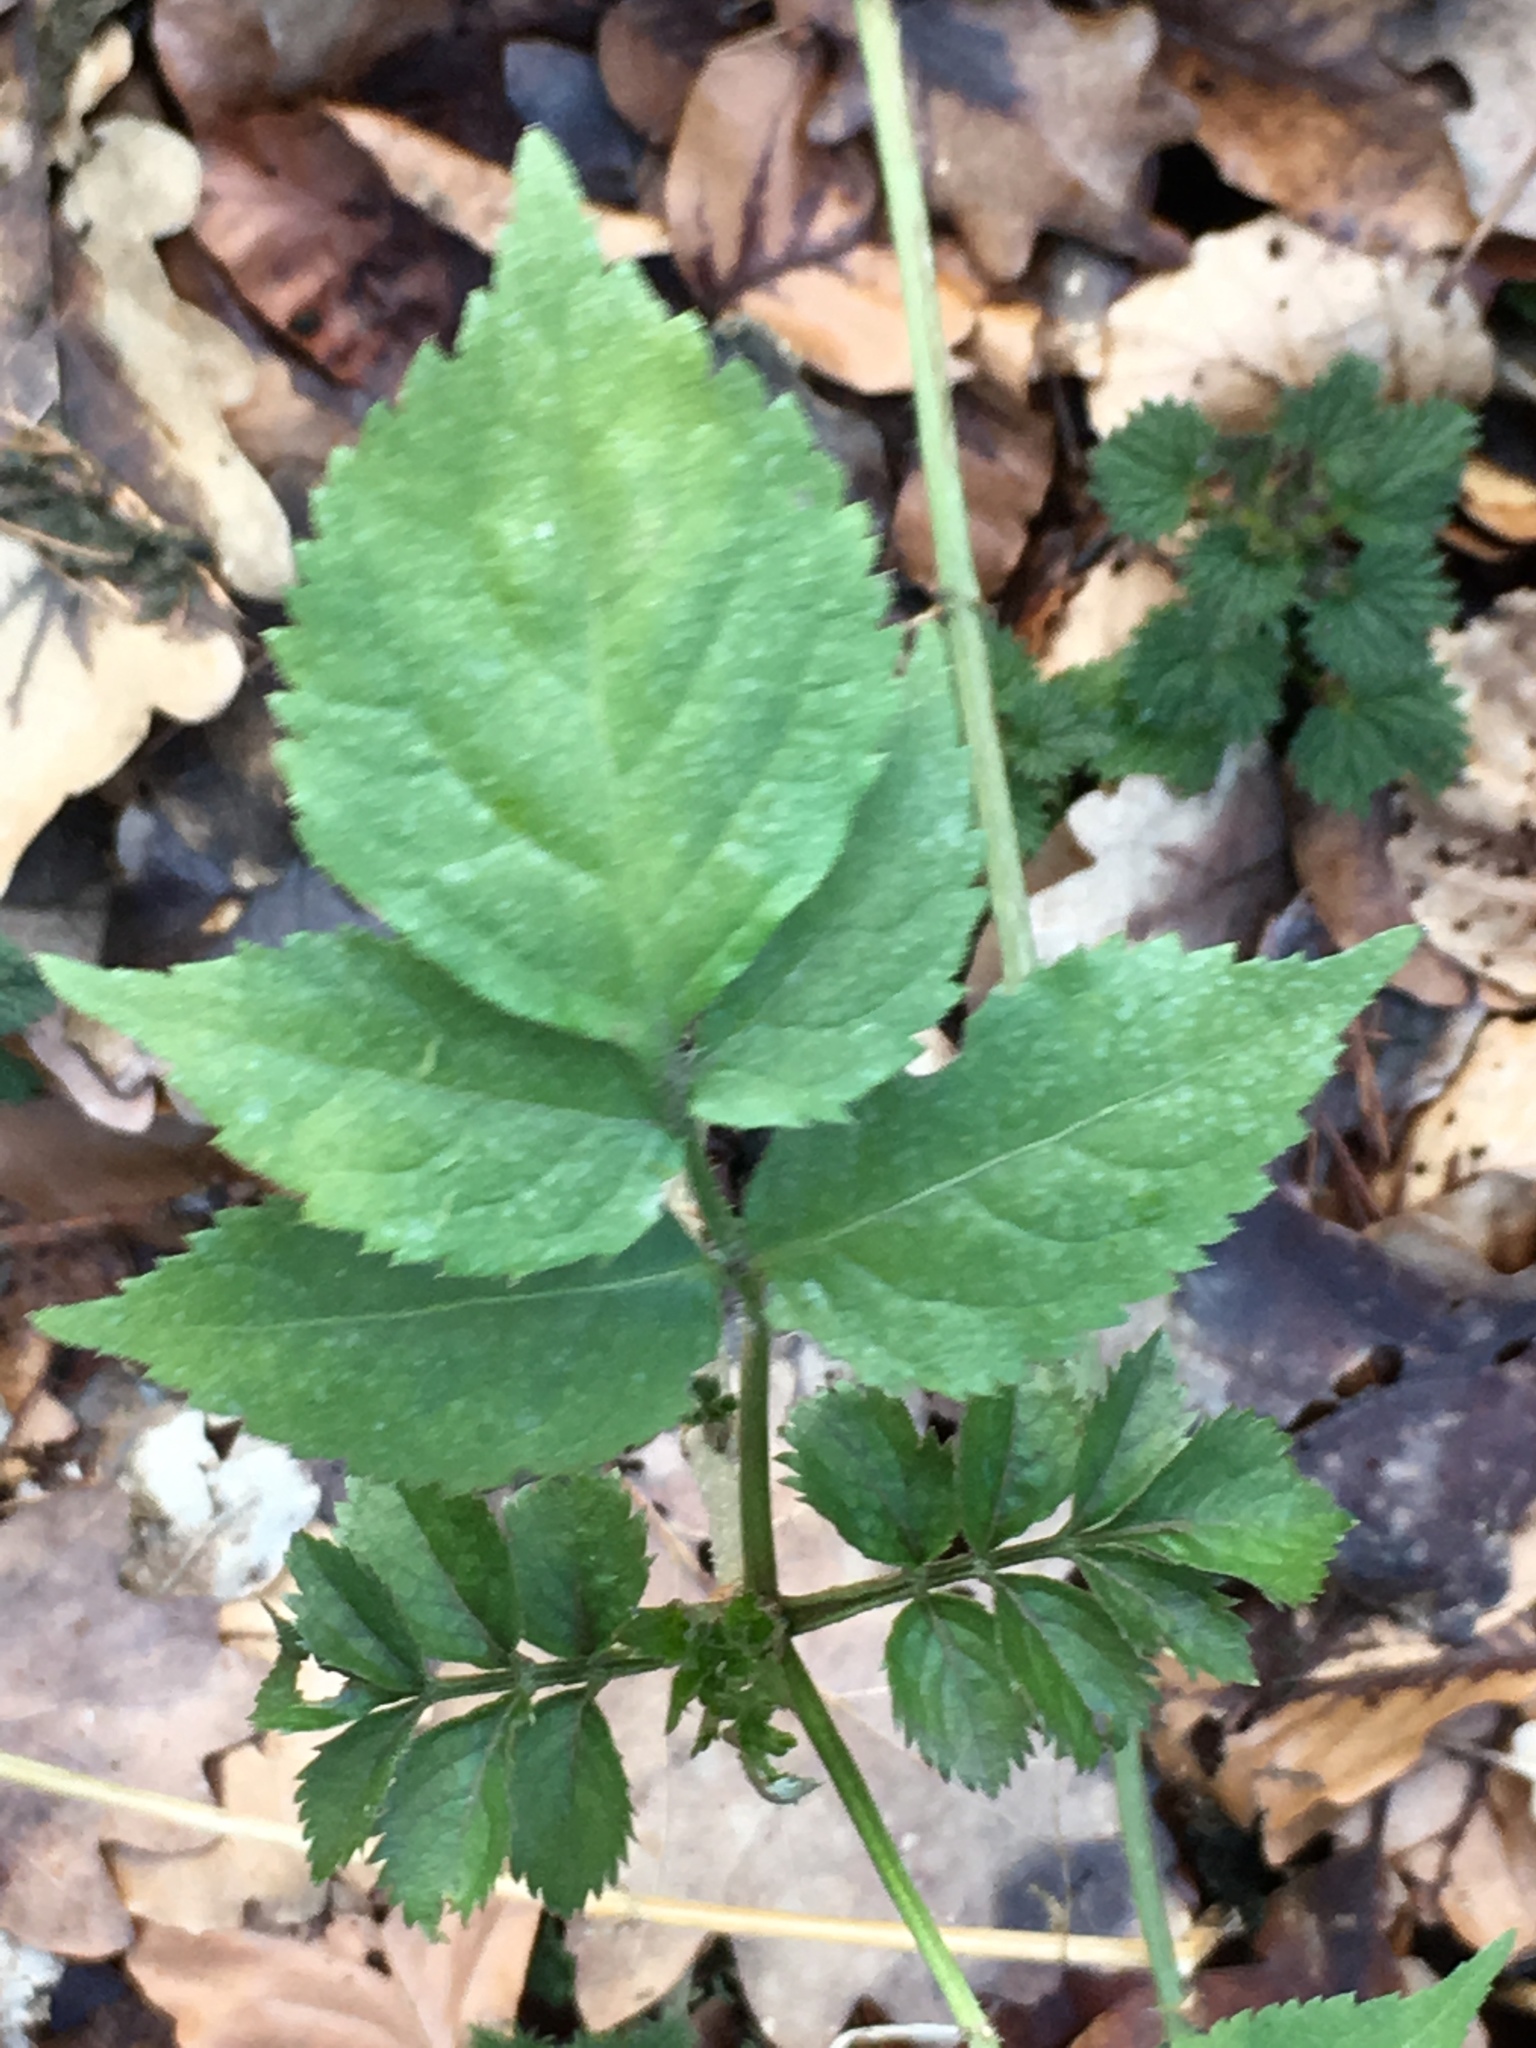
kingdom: Plantae
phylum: Tracheophyta
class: Magnoliopsida
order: Dipsacales
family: Viburnaceae
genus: Sambucus
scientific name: Sambucus nigra
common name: Elder
